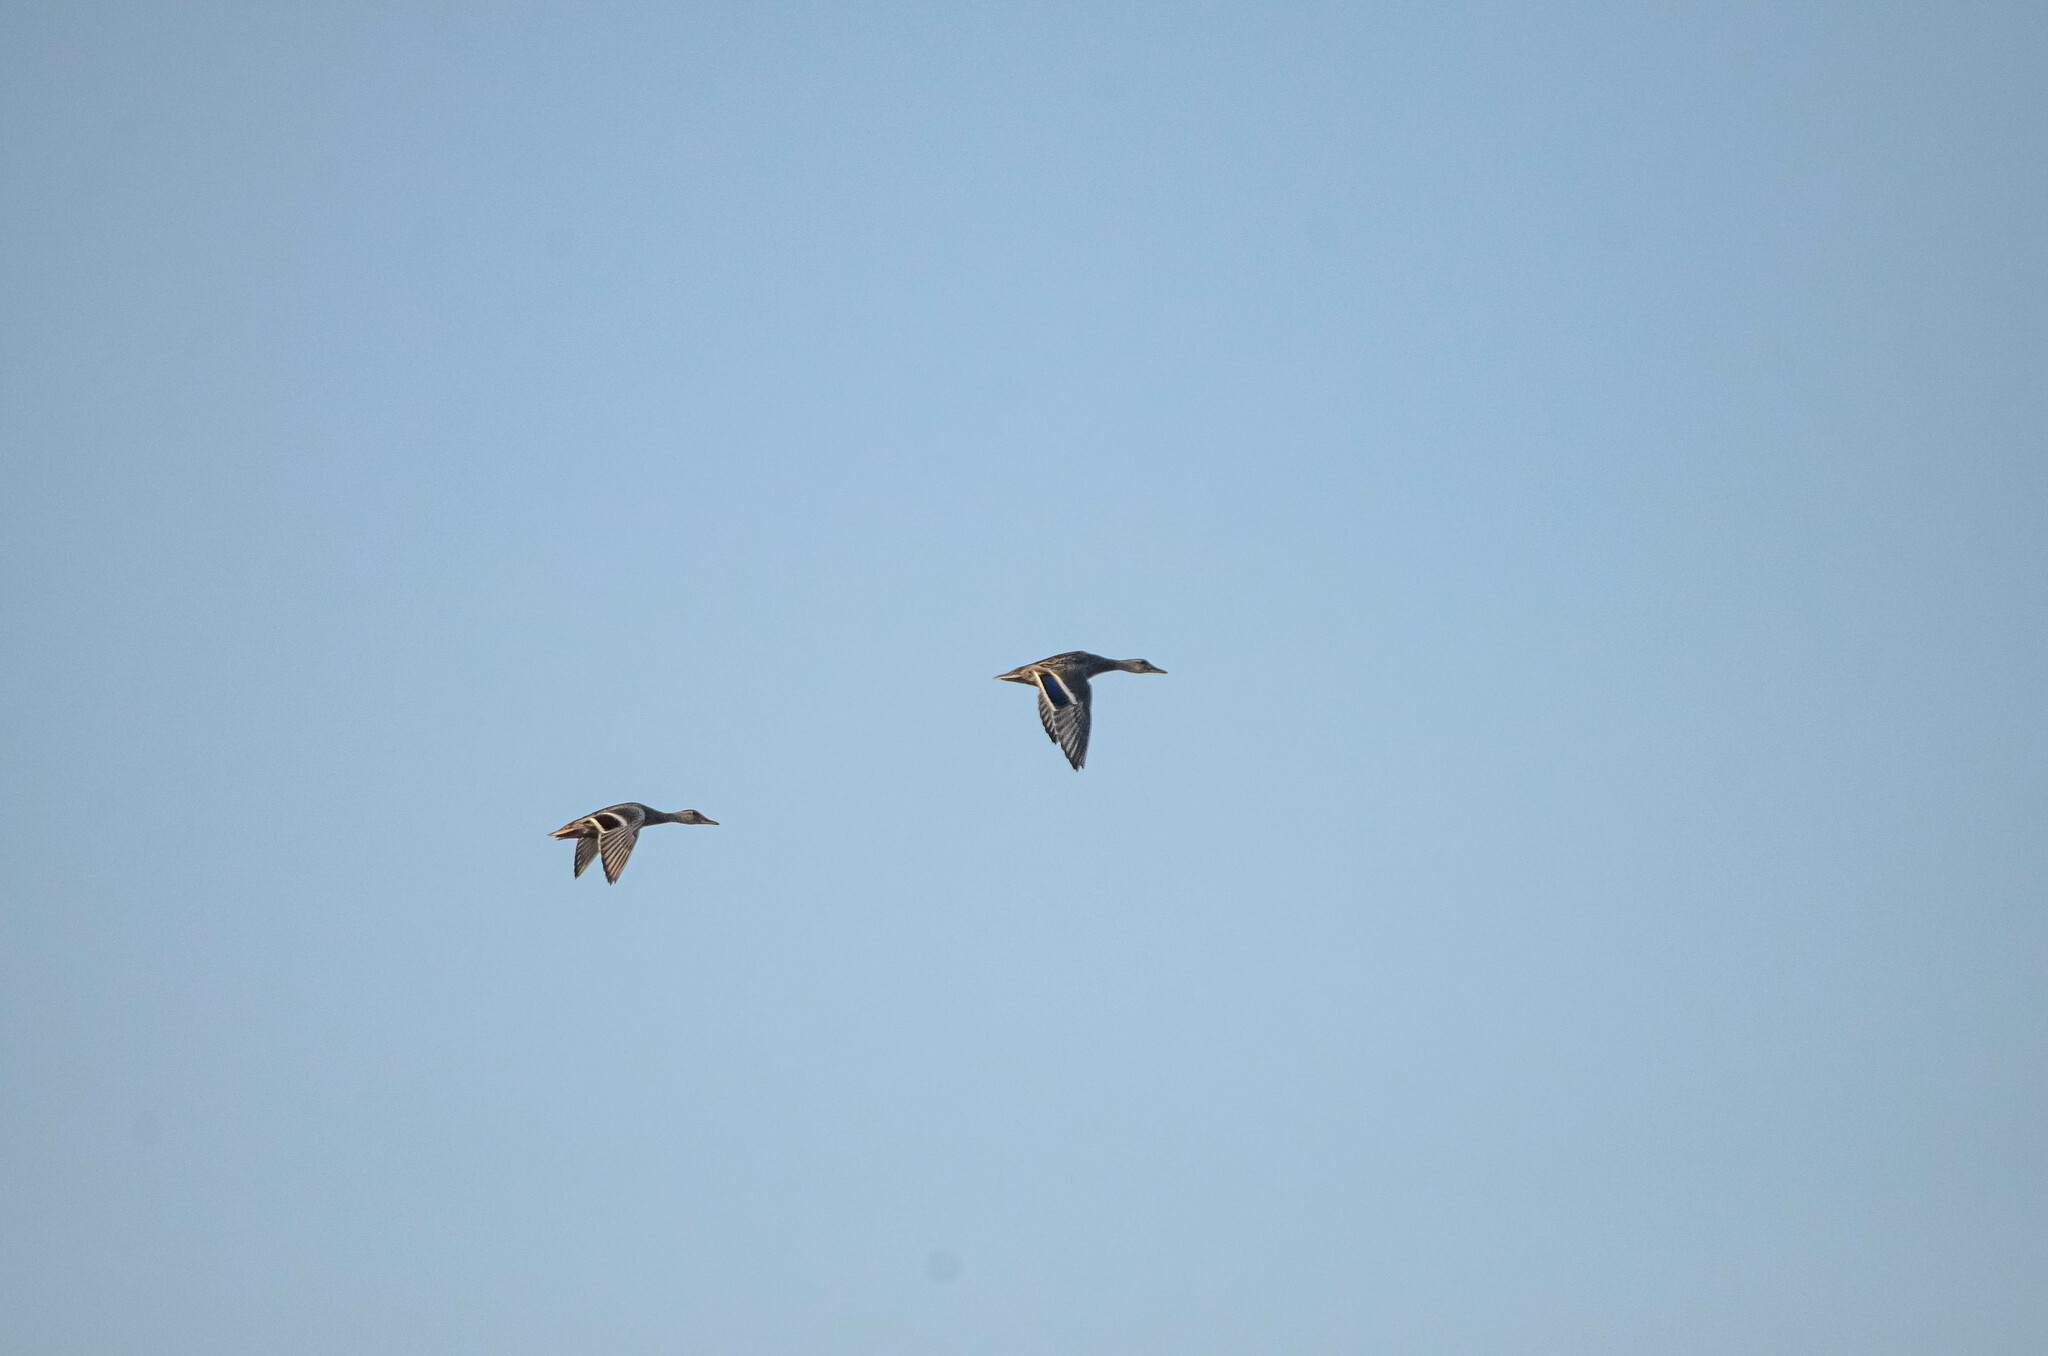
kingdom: Animalia
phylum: Chordata
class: Aves
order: Anseriformes
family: Anatidae
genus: Anas
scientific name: Anas platyrhynchos
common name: Mallard
